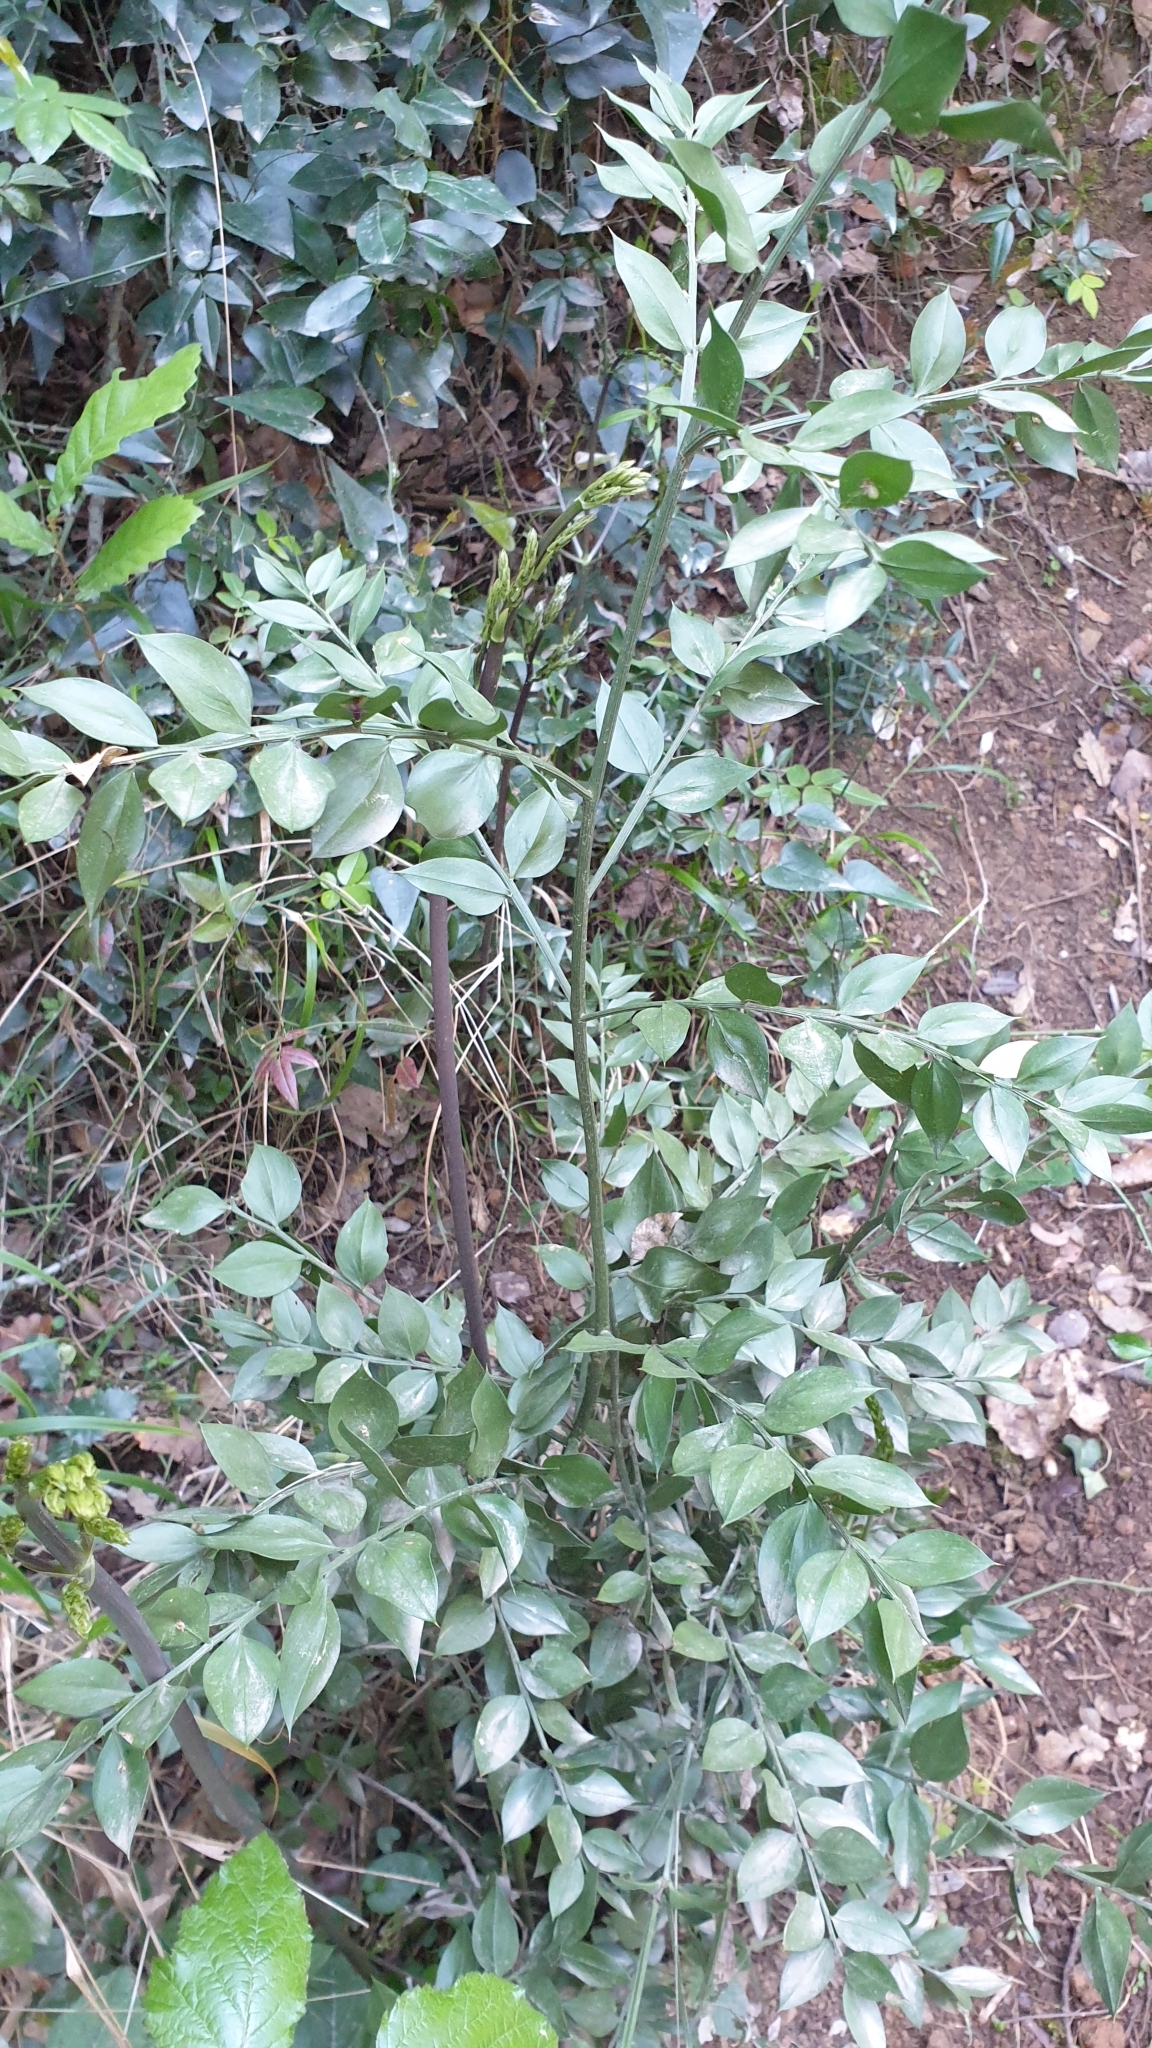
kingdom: Plantae
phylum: Tracheophyta
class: Liliopsida
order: Asparagales
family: Asparagaceae
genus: Ruscus
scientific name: Ruscus aculeatus
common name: Butcher's-broom
